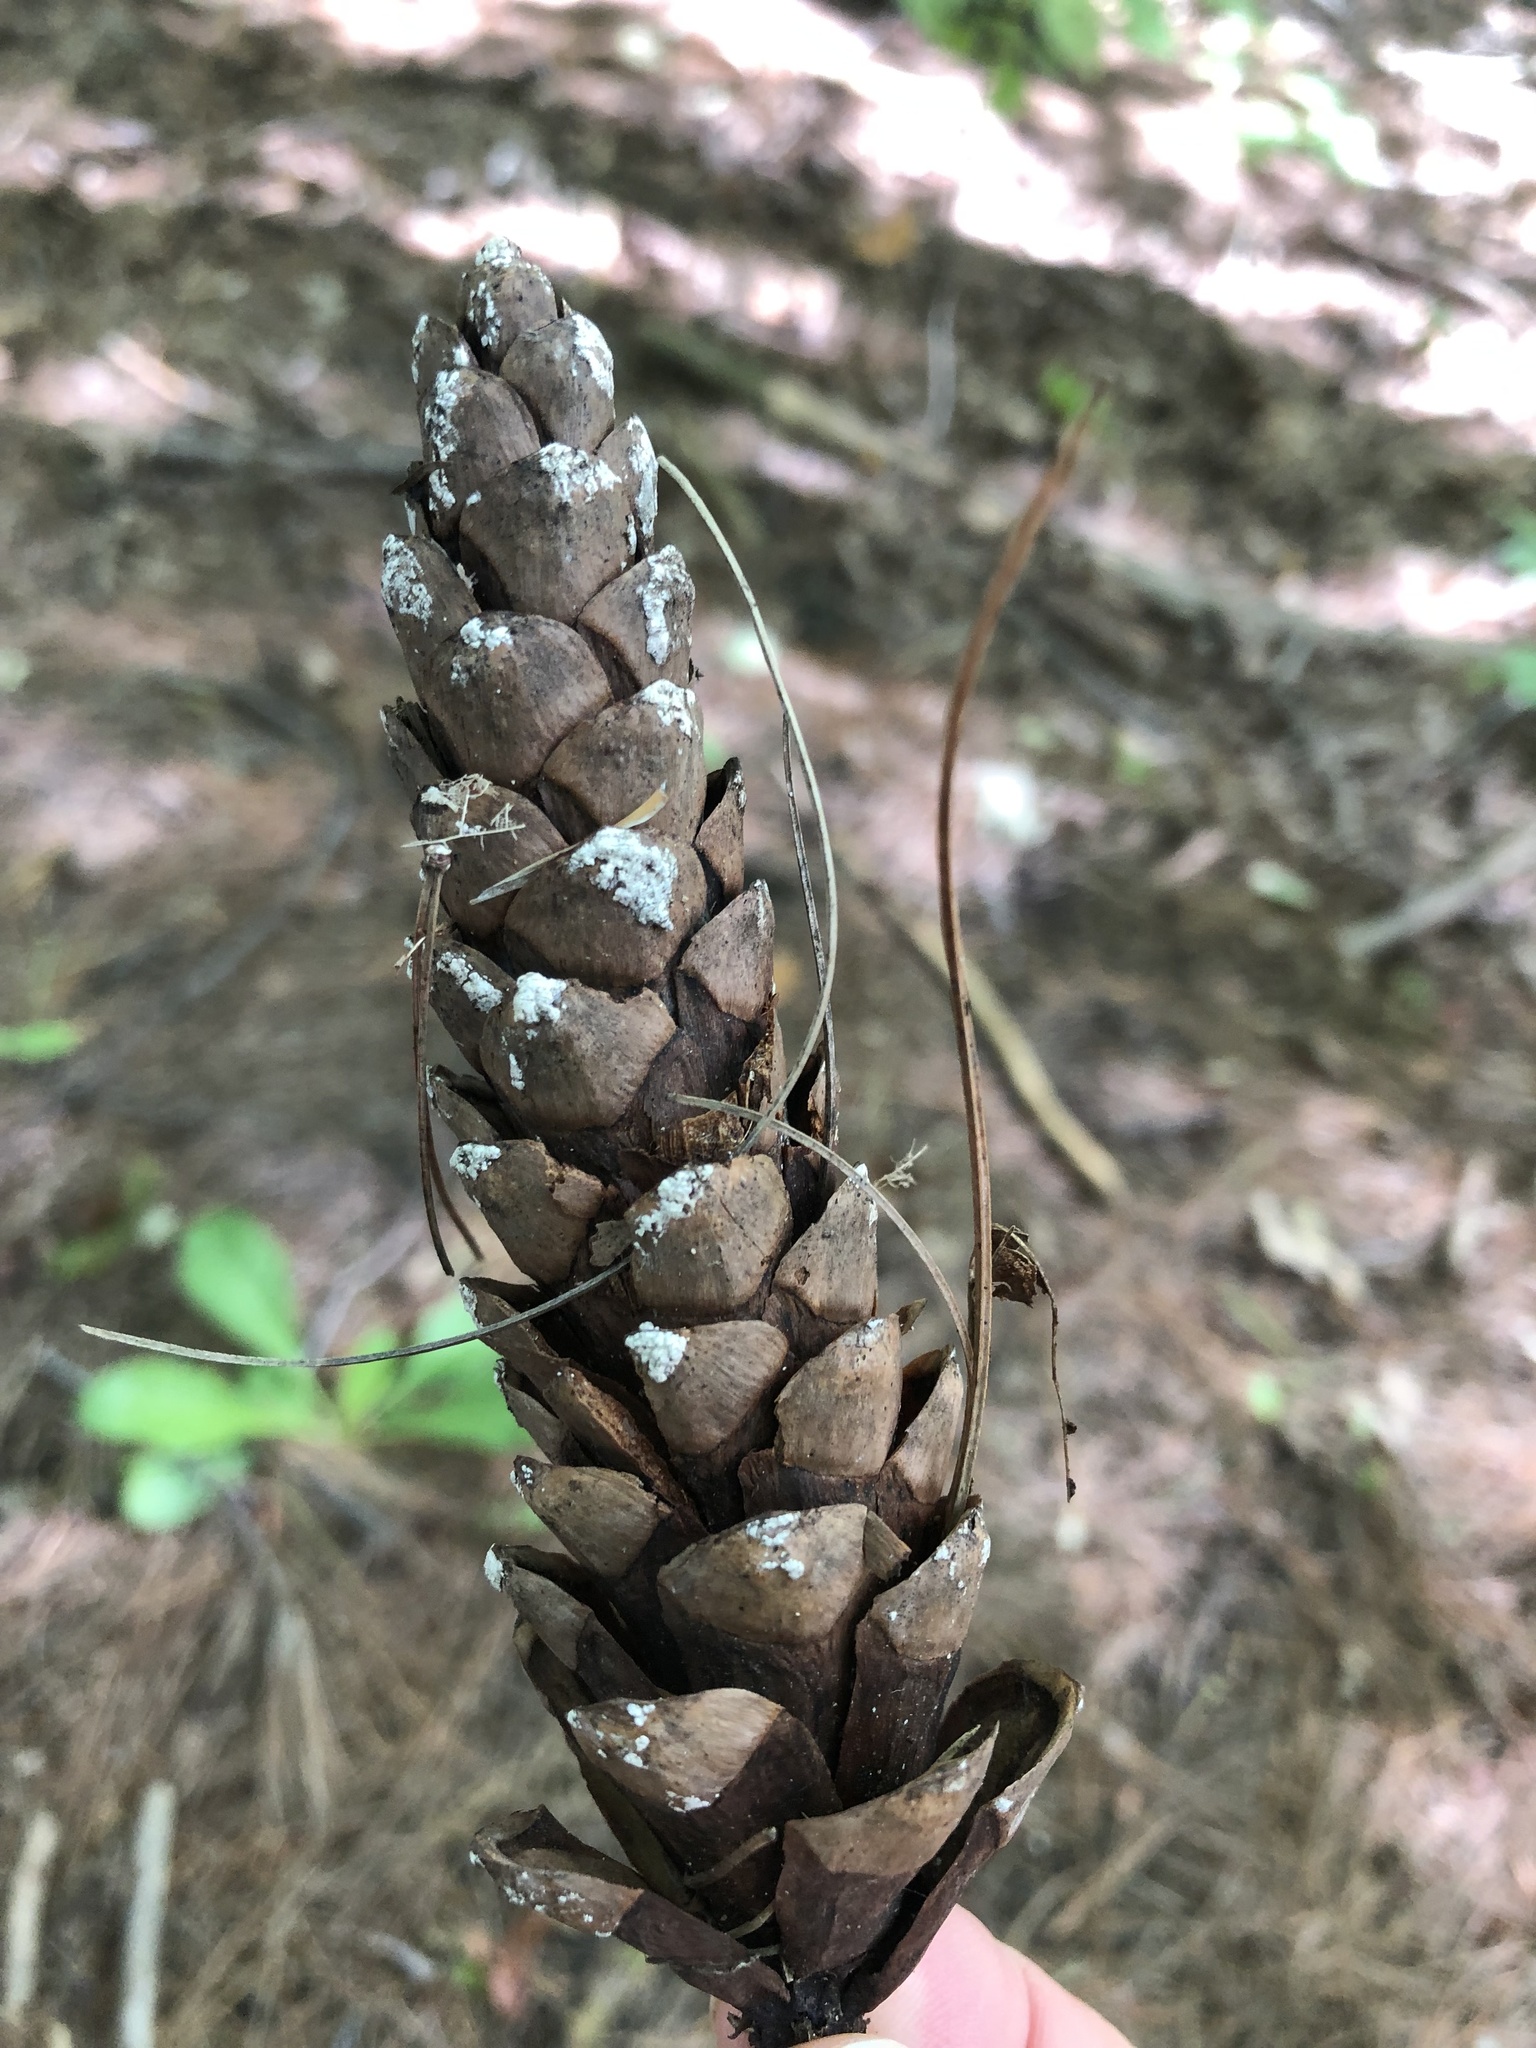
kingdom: Plantae
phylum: Tracheophyta
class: Pinopsida
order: Pinales
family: Pinaceae
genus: Pinus
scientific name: Pinus strobus
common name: Weymouth pine
